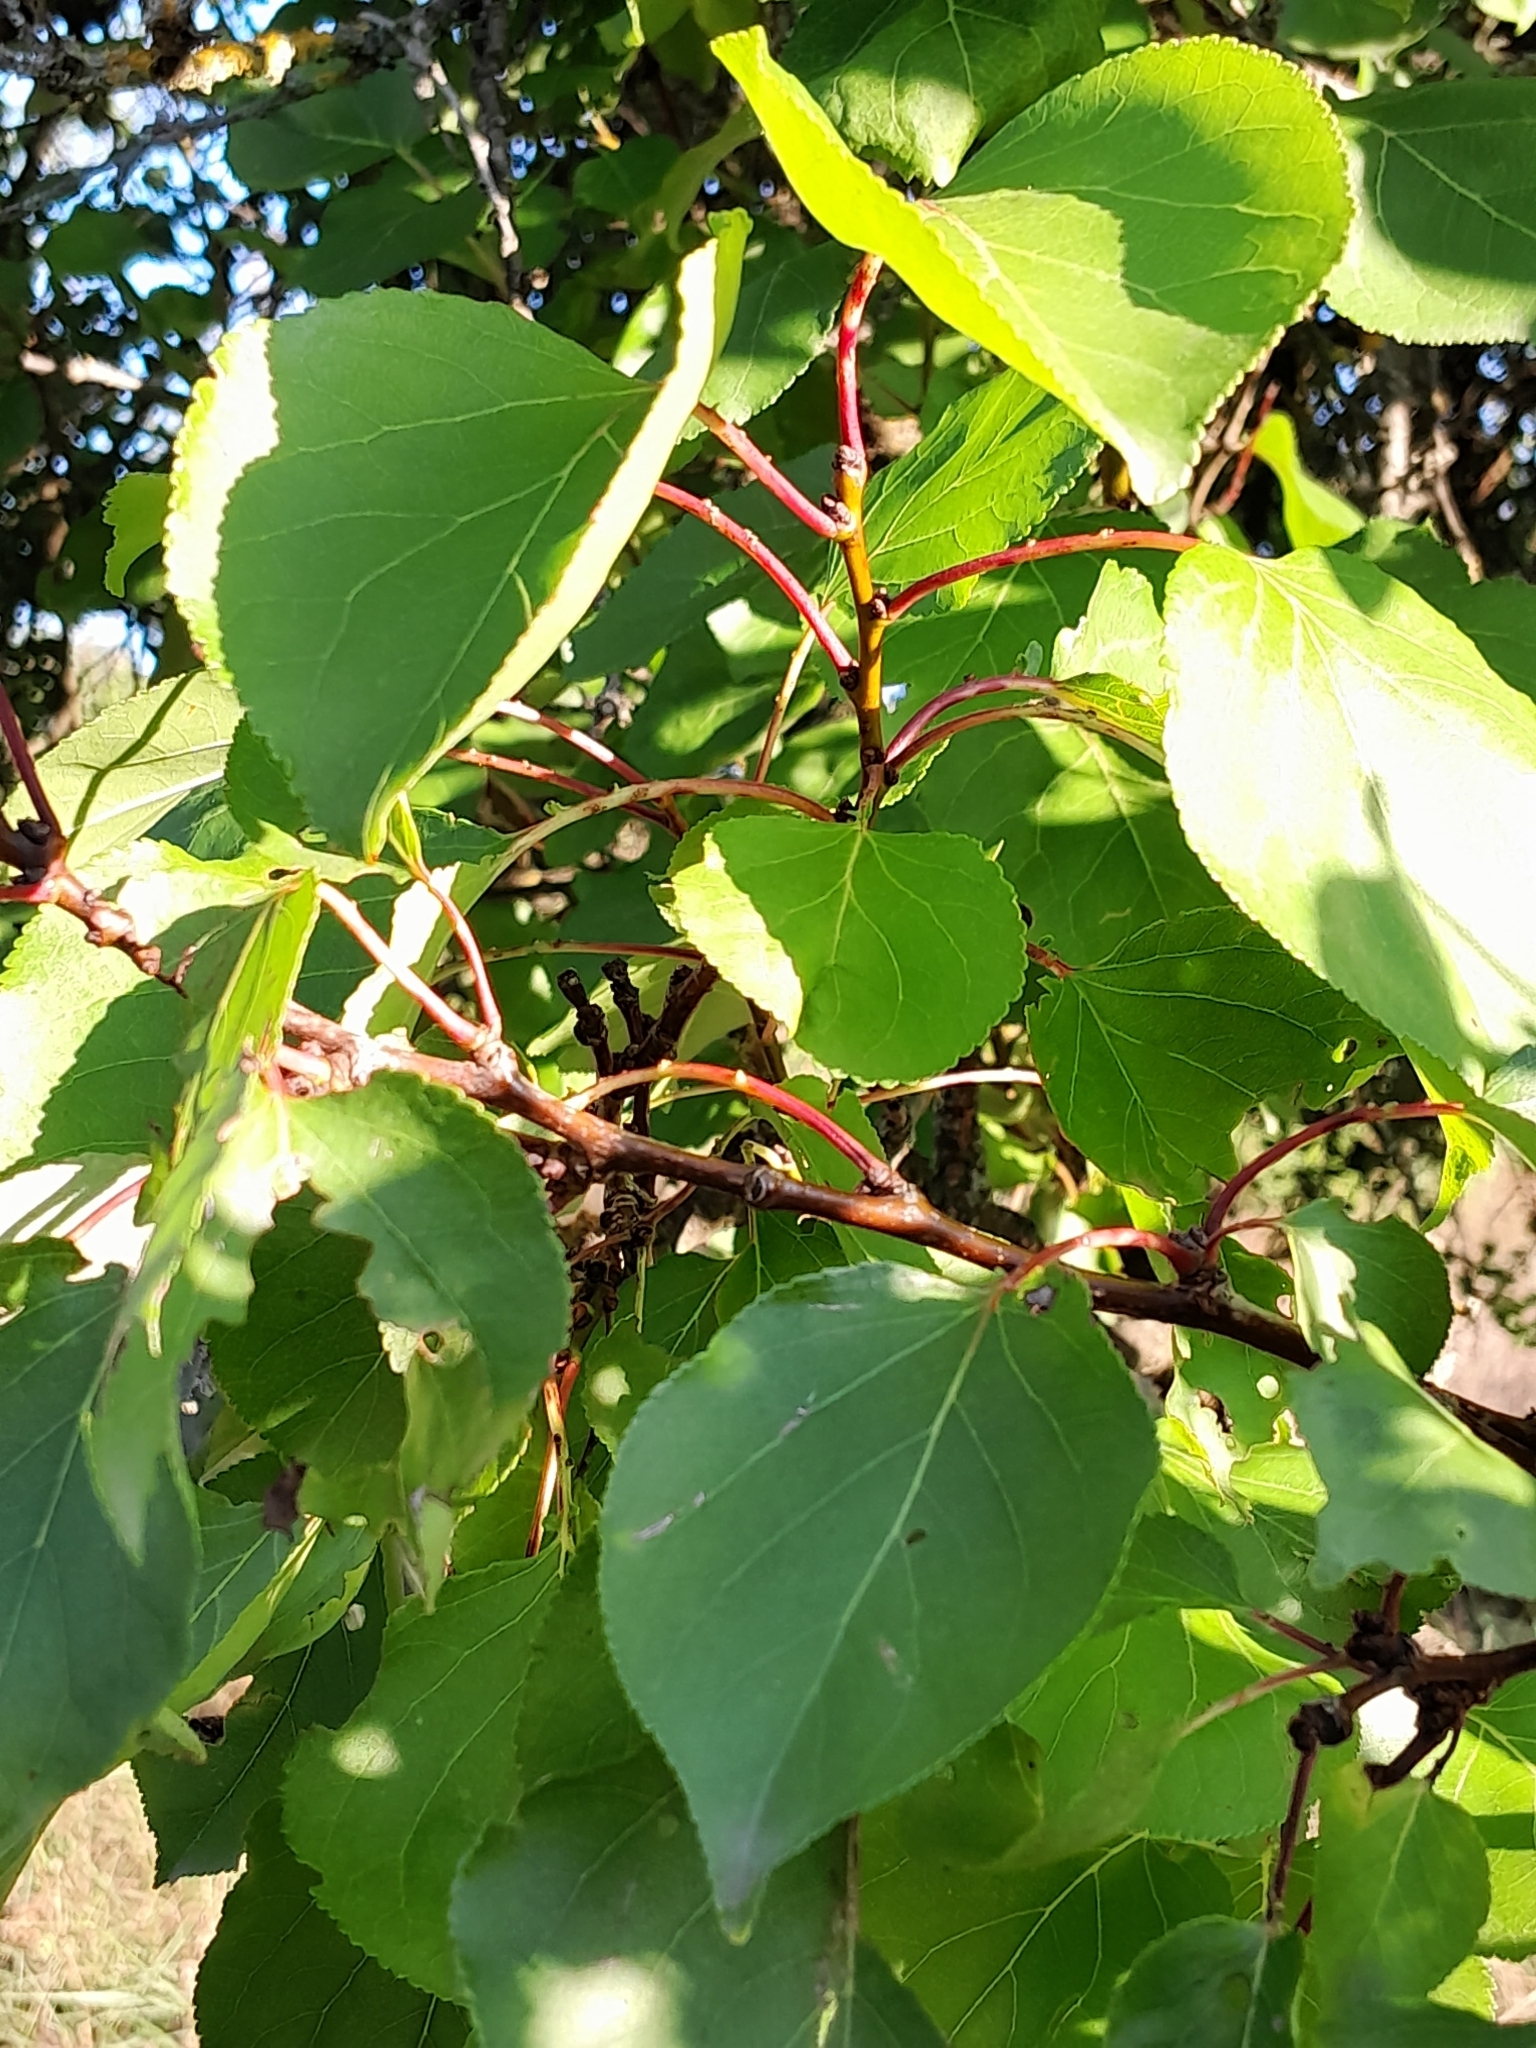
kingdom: Plantae
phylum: Tracheophyta
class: Magnoliopsida
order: Rosales
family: Rosaceae
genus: Prunus
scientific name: Prunus armeniaca
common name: Apricot
